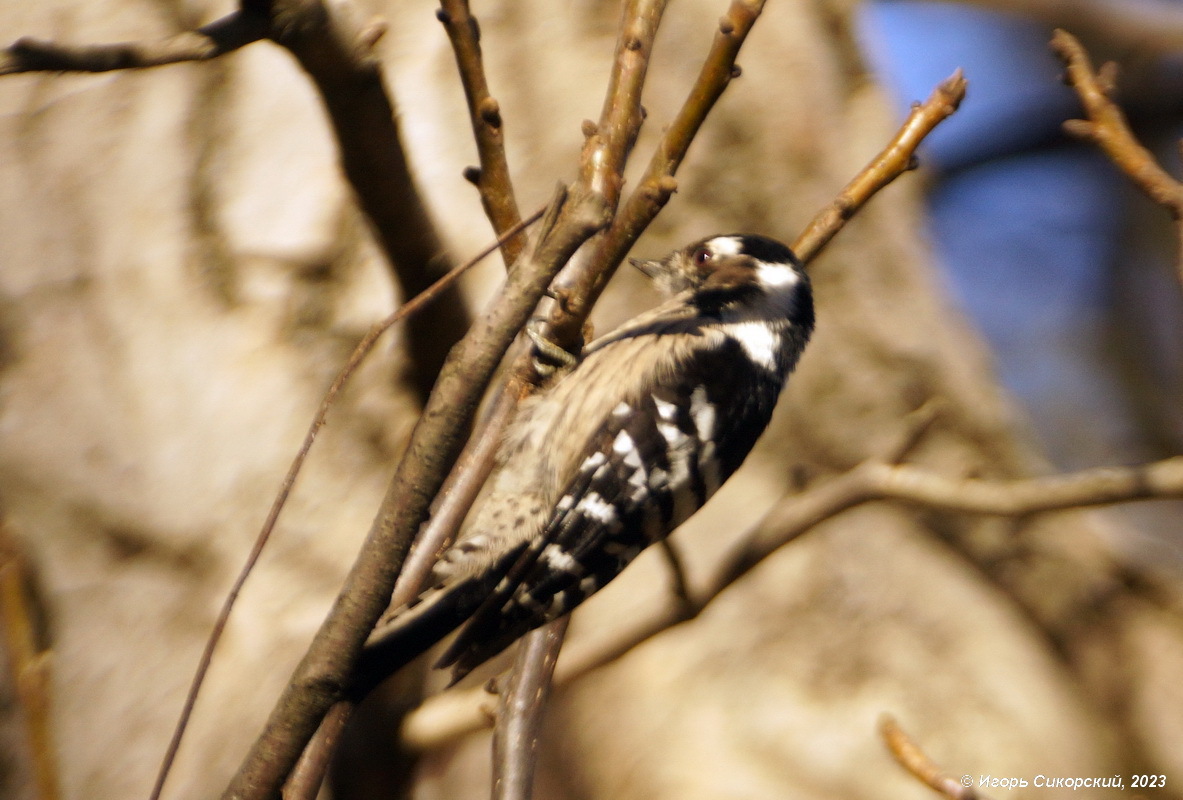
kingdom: Animalia
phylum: Chordata
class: Aves
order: Piciformes
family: Picidae
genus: Dryobates
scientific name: Dryobates minor
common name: Lesser spotted woodpecker
